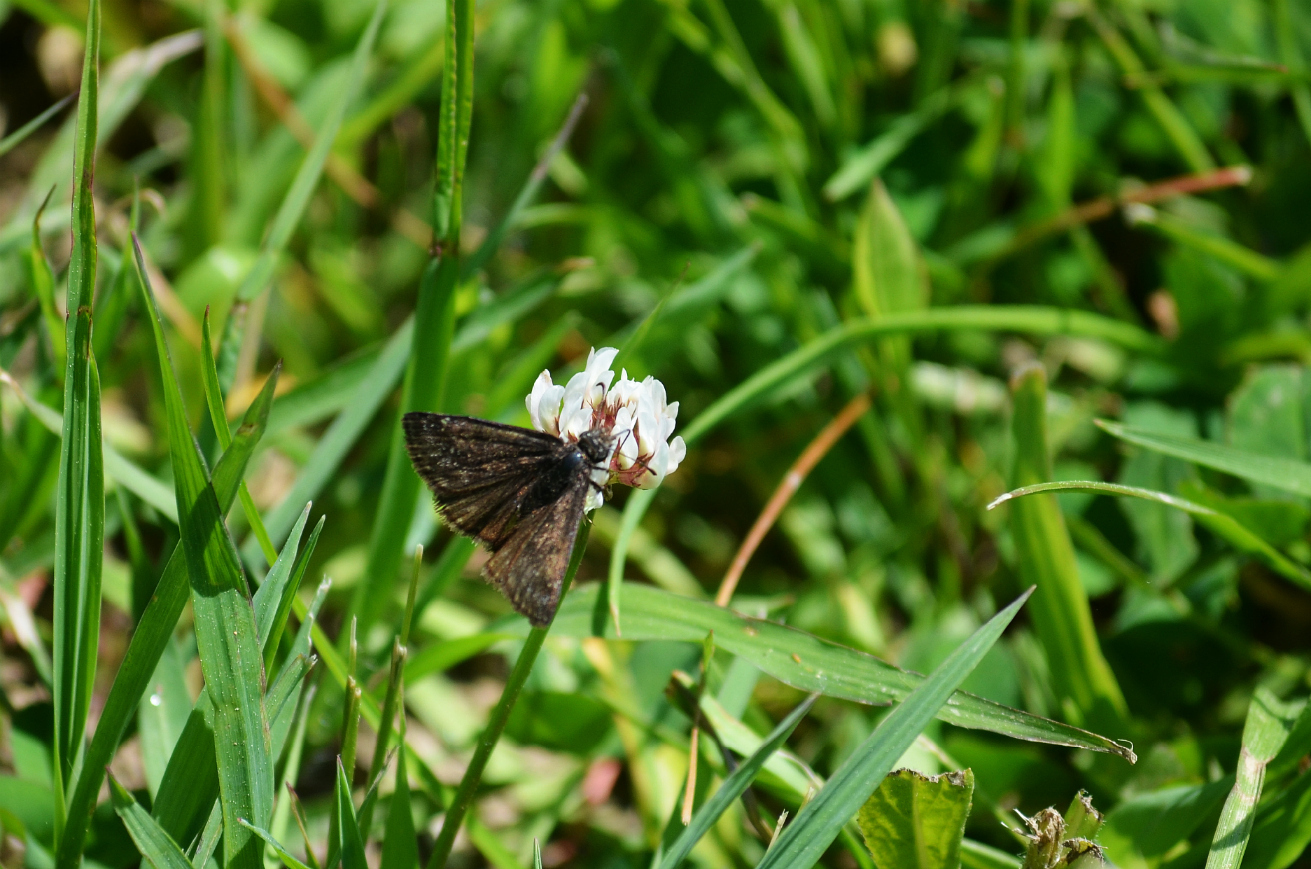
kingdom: Animalia
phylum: Arthropoda
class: Insecta
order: Lepidoptera
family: Hesperiidae
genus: Erynnis
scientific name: Erynnis baptisiae
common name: Wild indigo duskywing
